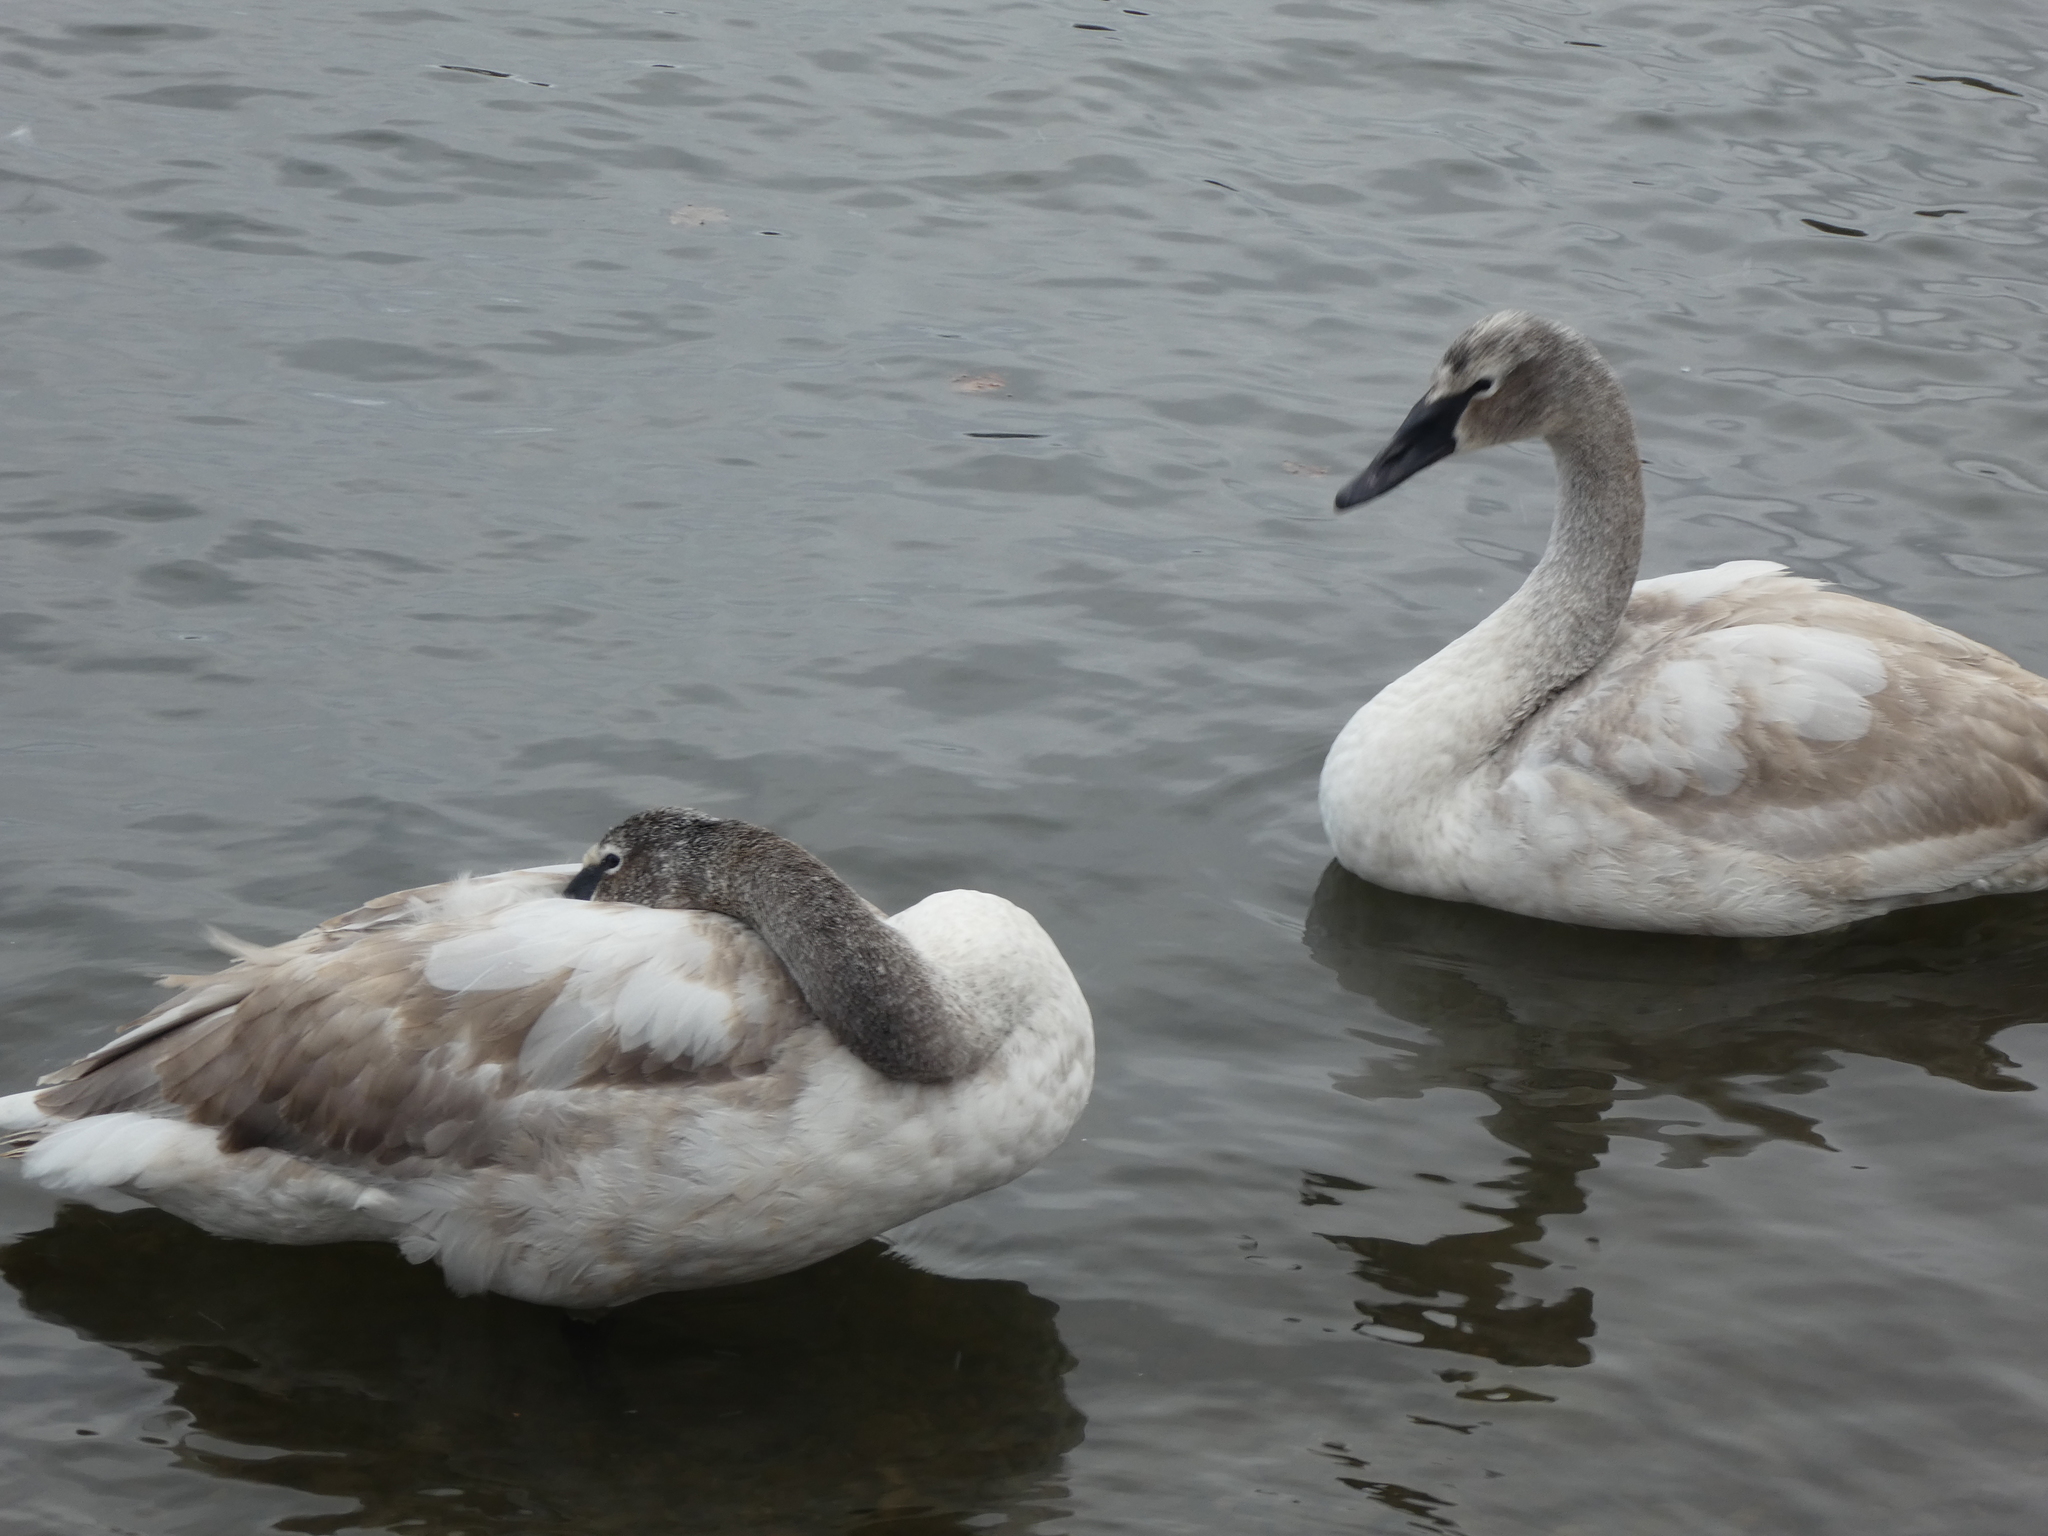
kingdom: Animalia
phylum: Chordata
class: Aves
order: Anseriformes
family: Anatidae
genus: Cygnus
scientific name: Cygnus buccinator
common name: Trumpeter swan
